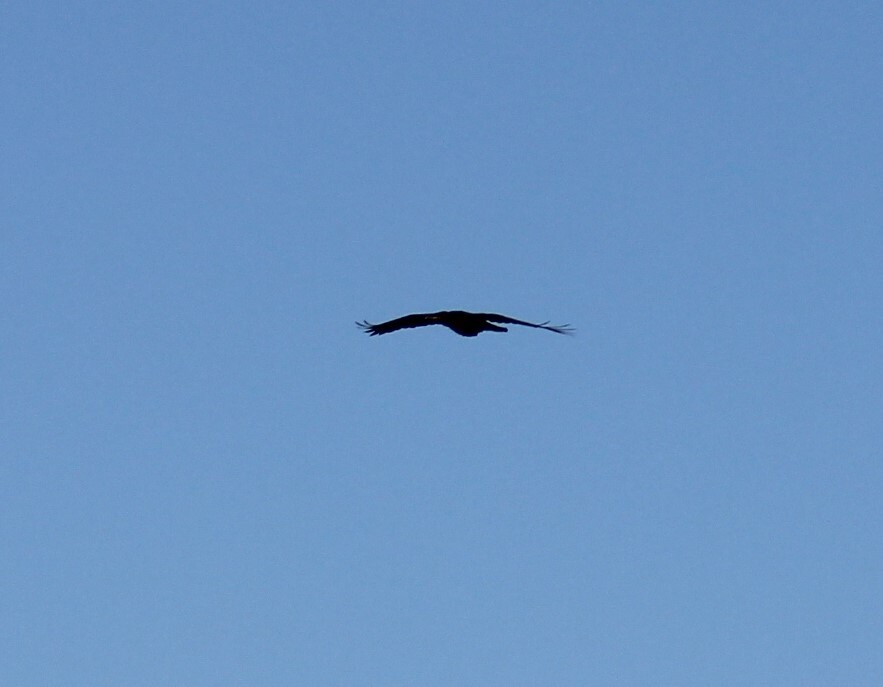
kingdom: Animalia
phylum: Chordata
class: Aves
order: Passeriformes
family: Corvidae
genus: Corvus
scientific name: Corvus corax
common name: Common raven
